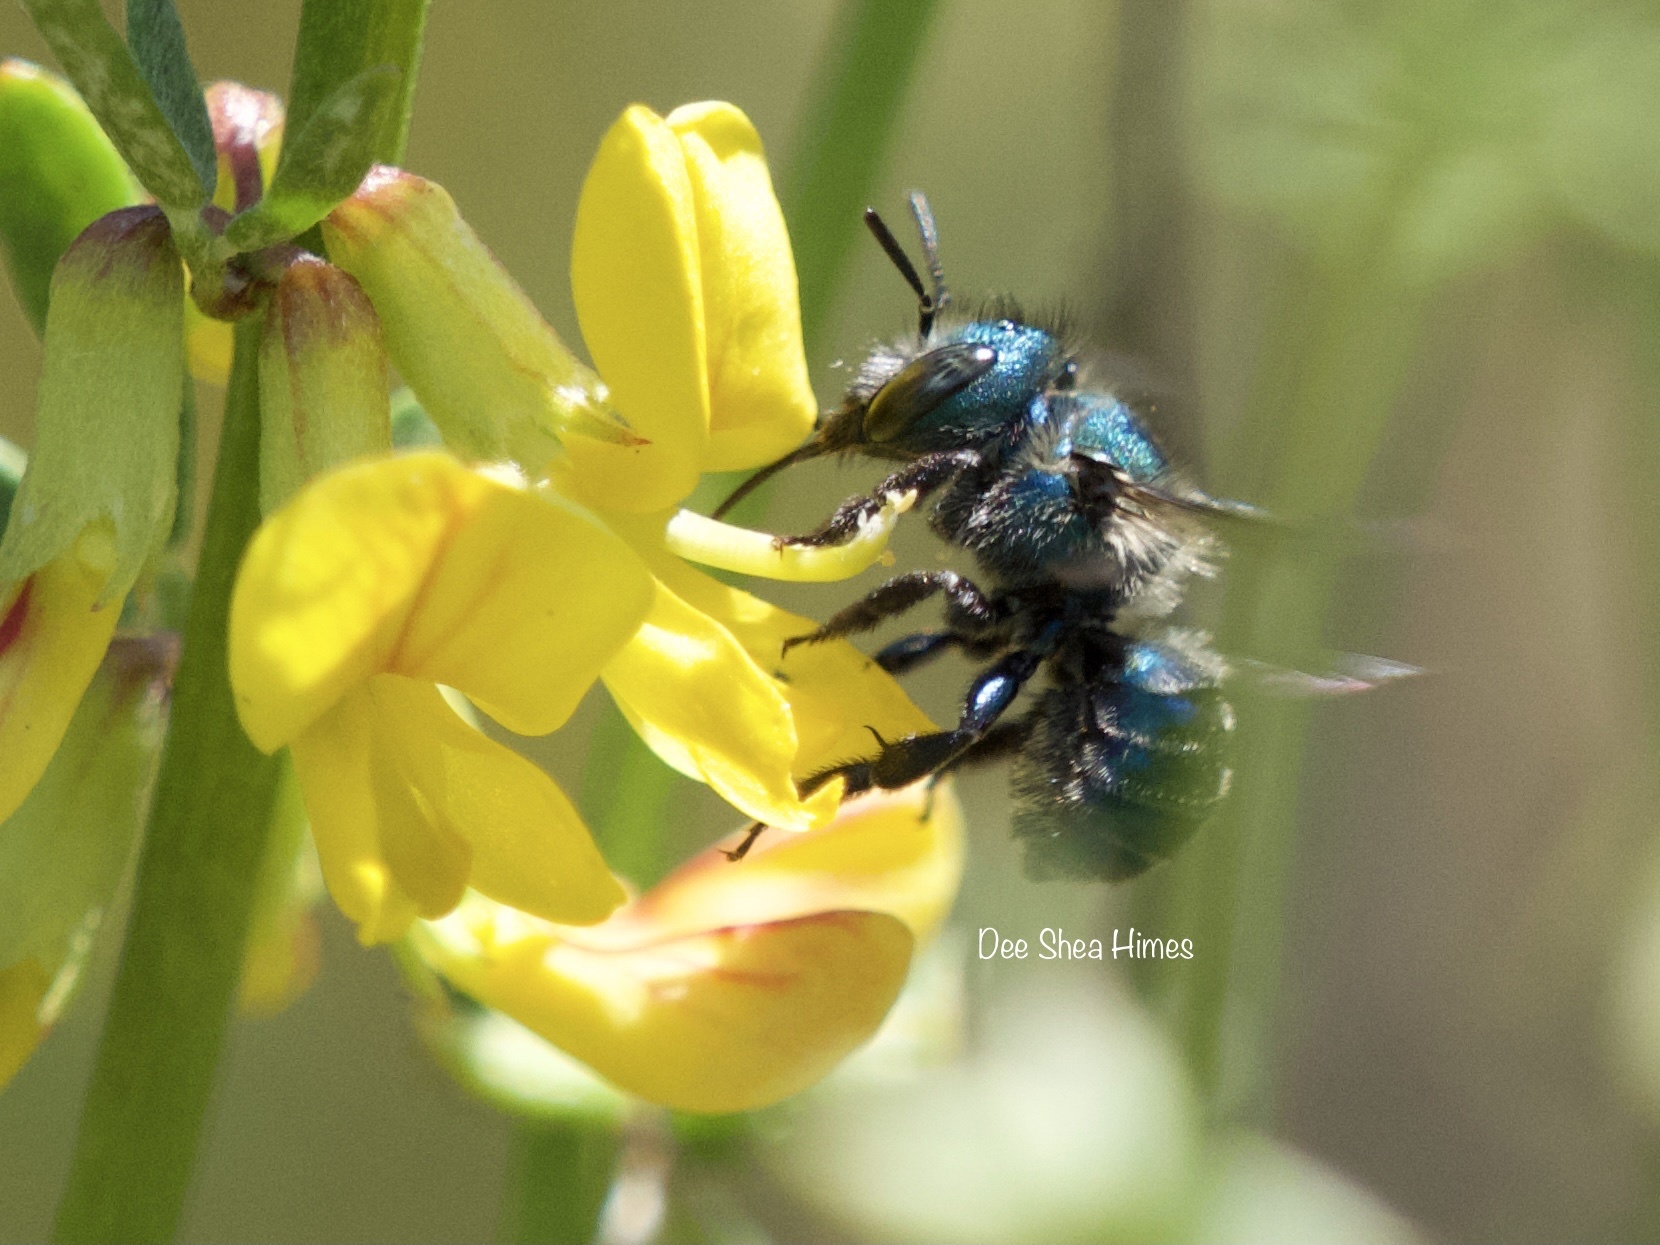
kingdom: Plantae
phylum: Tracheophyta
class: Magnoliopsida
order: Fabales
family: Fabaceae
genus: Acmispon
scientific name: Acmispon glaber
